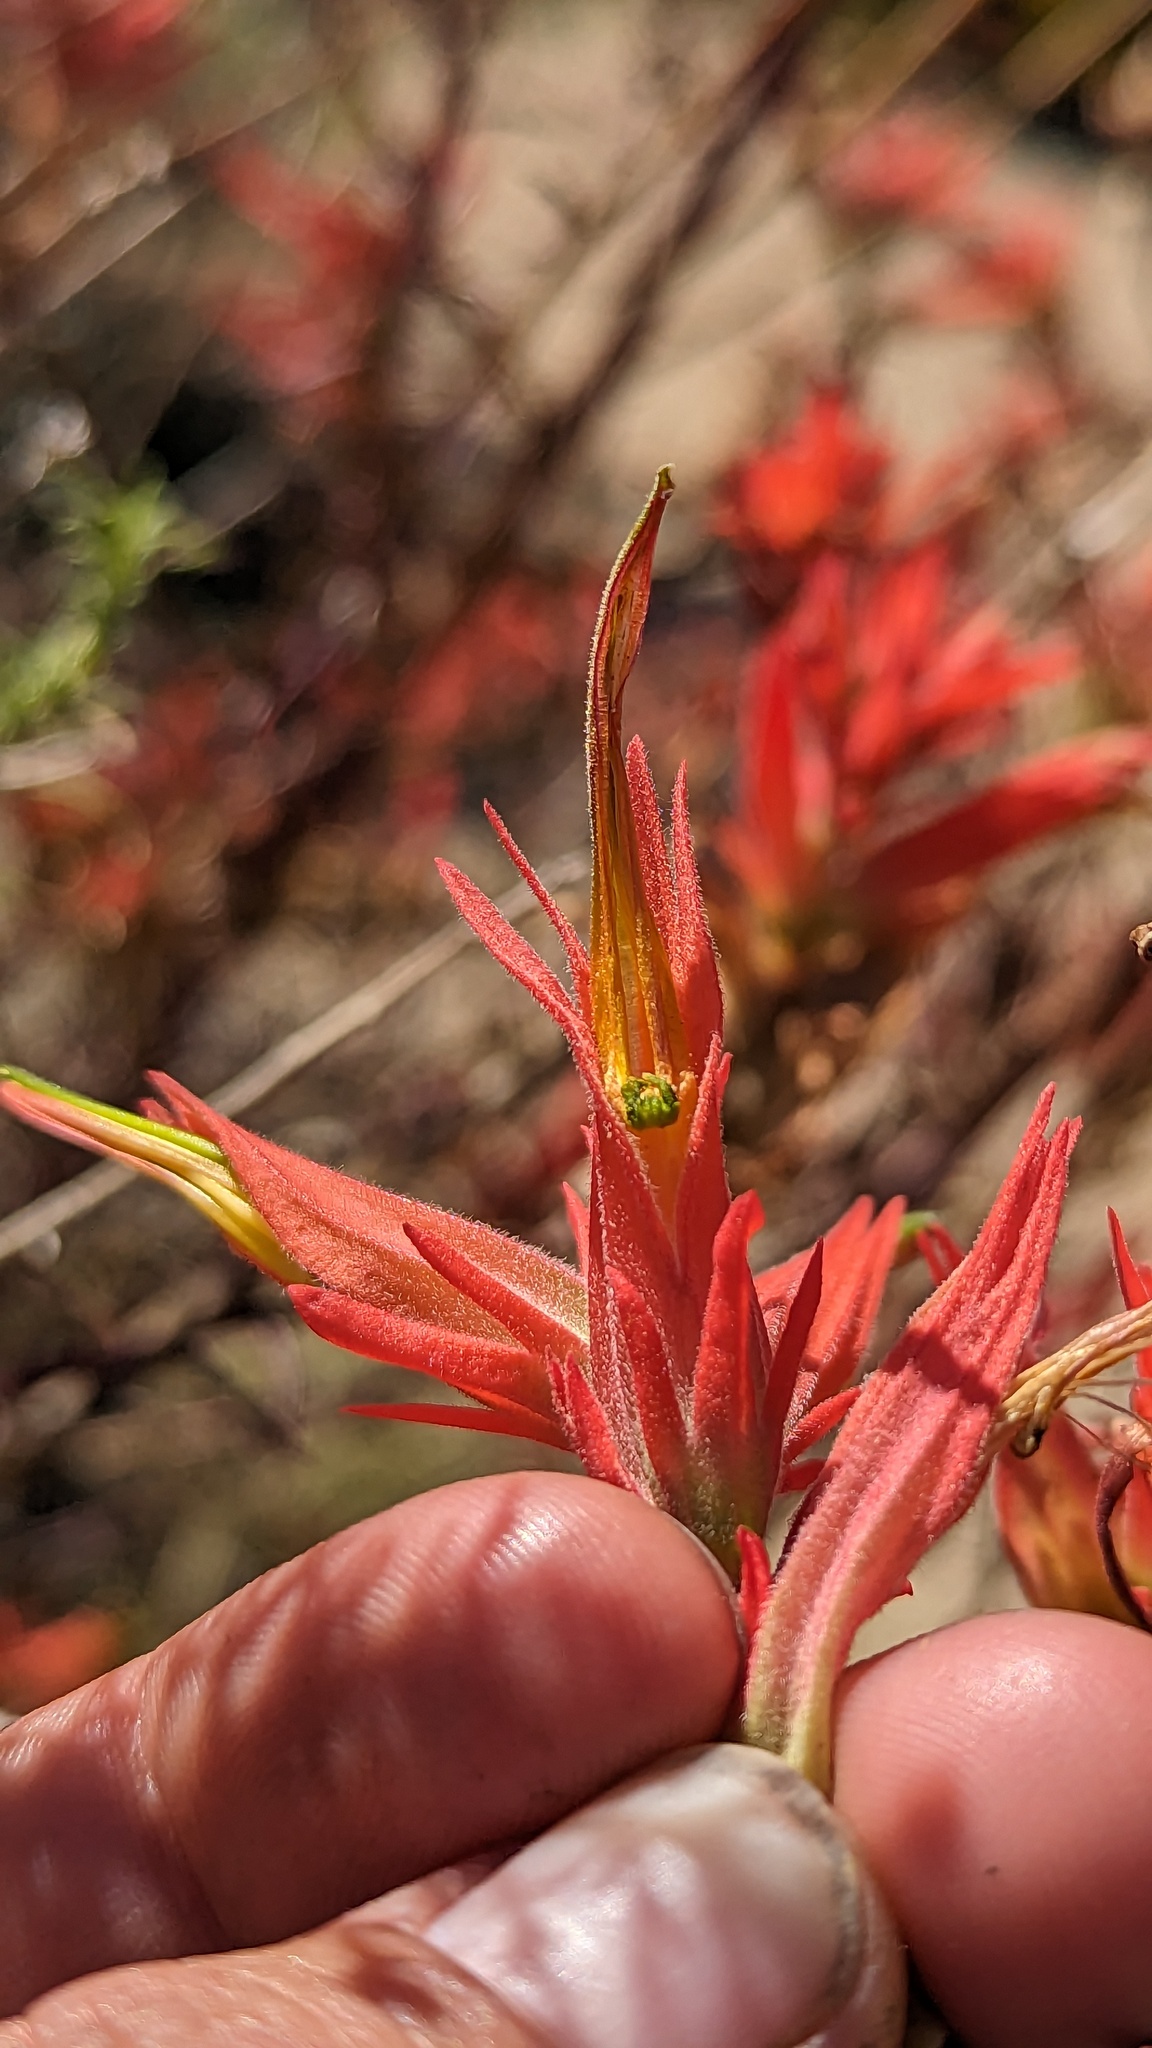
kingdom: Plantae
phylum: Tracheophyta
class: Magnoliopsida
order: Lamiales
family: Orobanchaceae
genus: Castilleja
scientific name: Castilleja linariifolia
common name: Wyoming paintbrush
